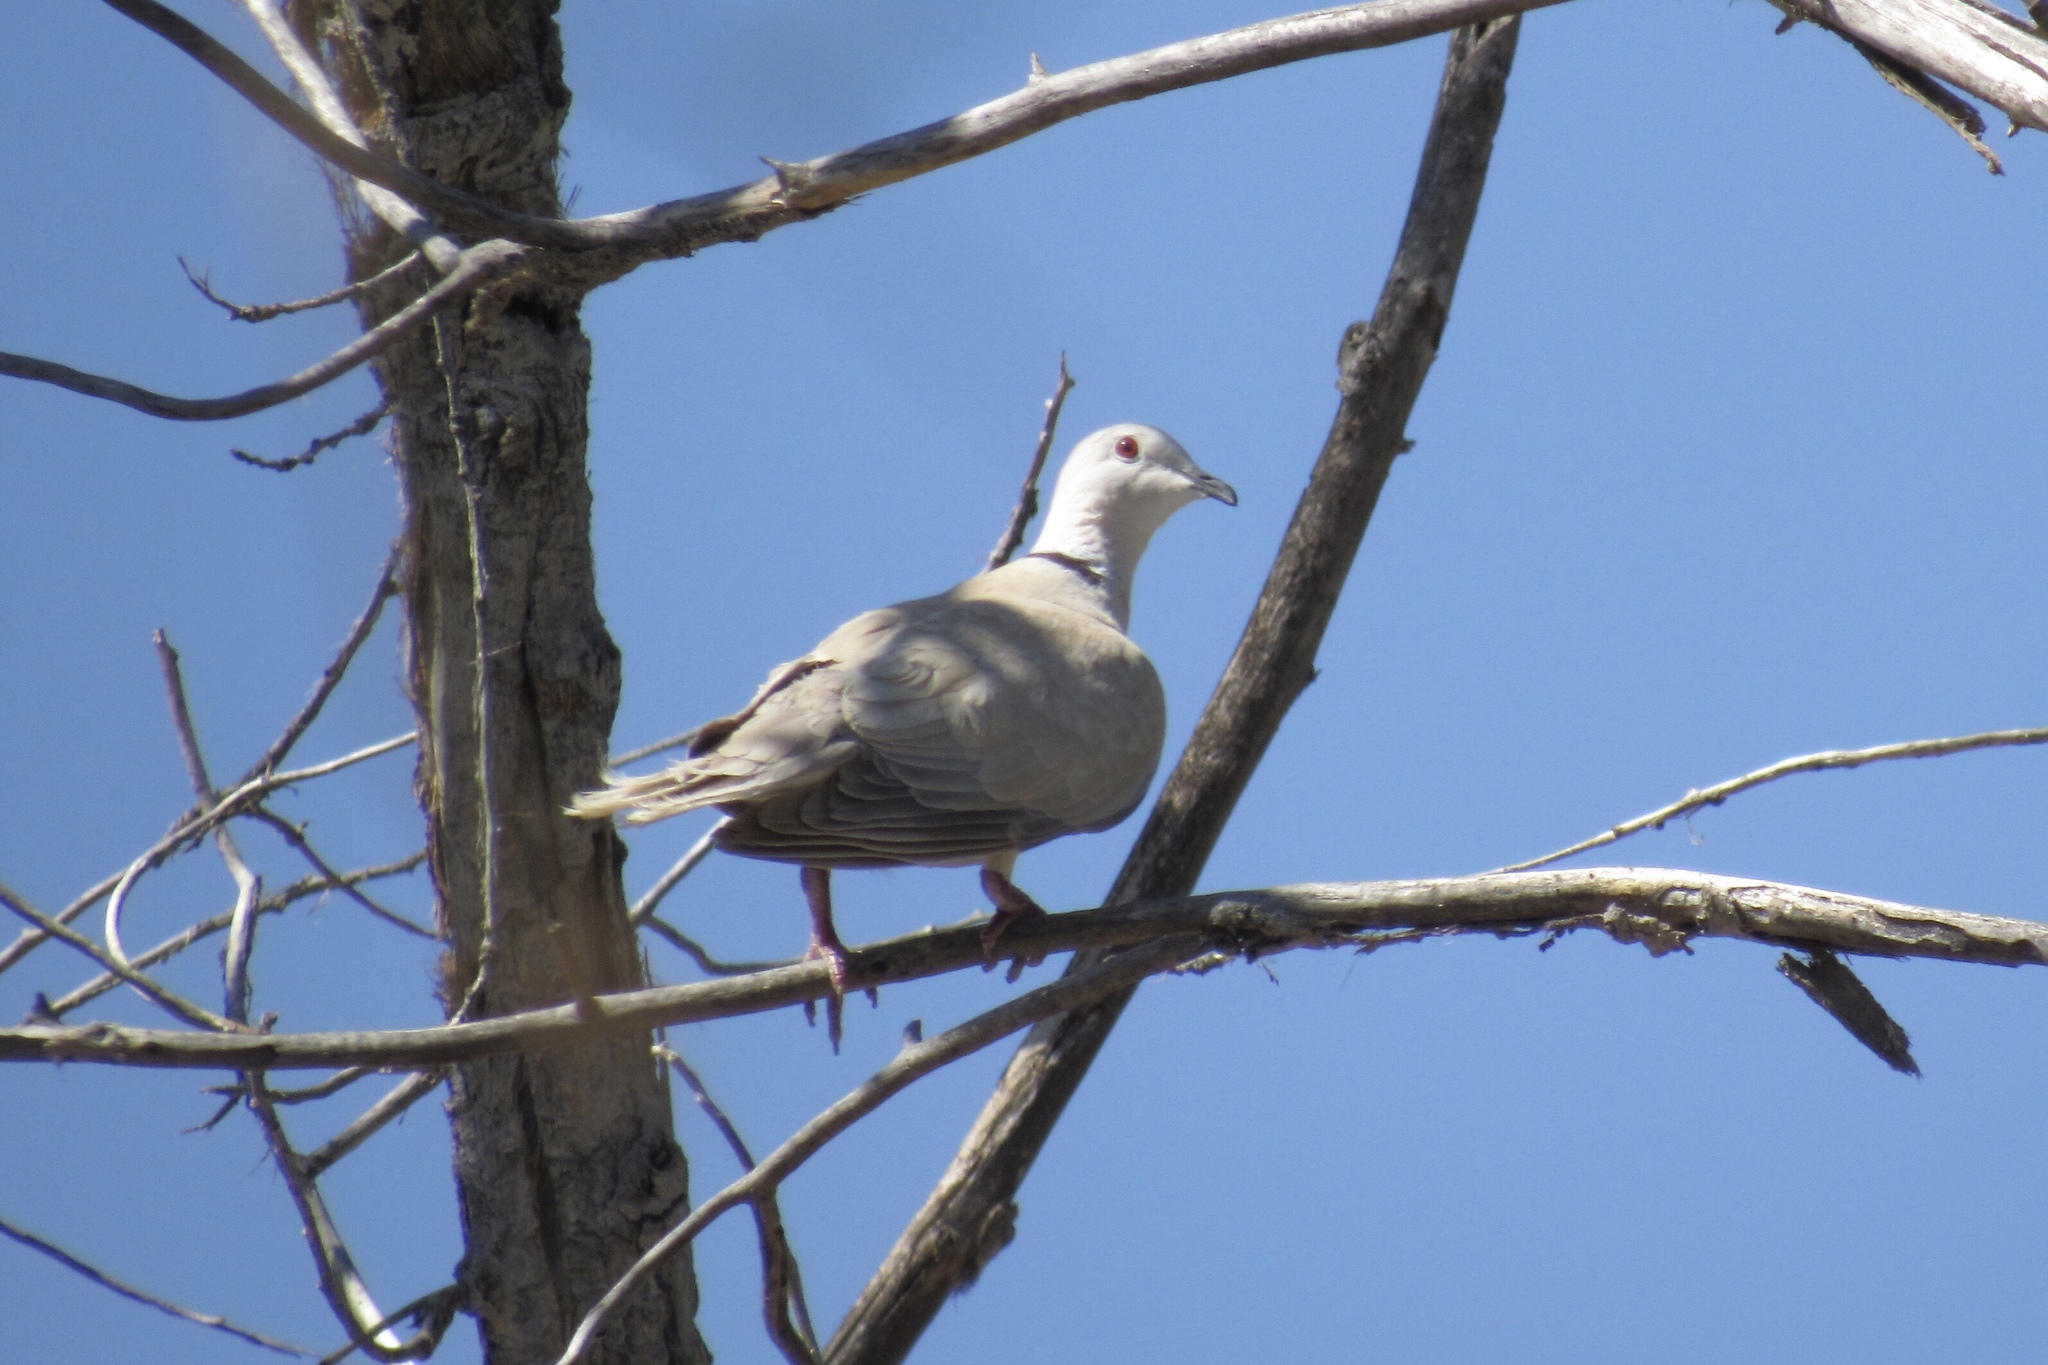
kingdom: Animalia
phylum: Chordata
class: Aves
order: Columbiformes
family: Columbidae
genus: Streptopelia
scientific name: Streptopelia decaocto
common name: Eurasian collared dove
